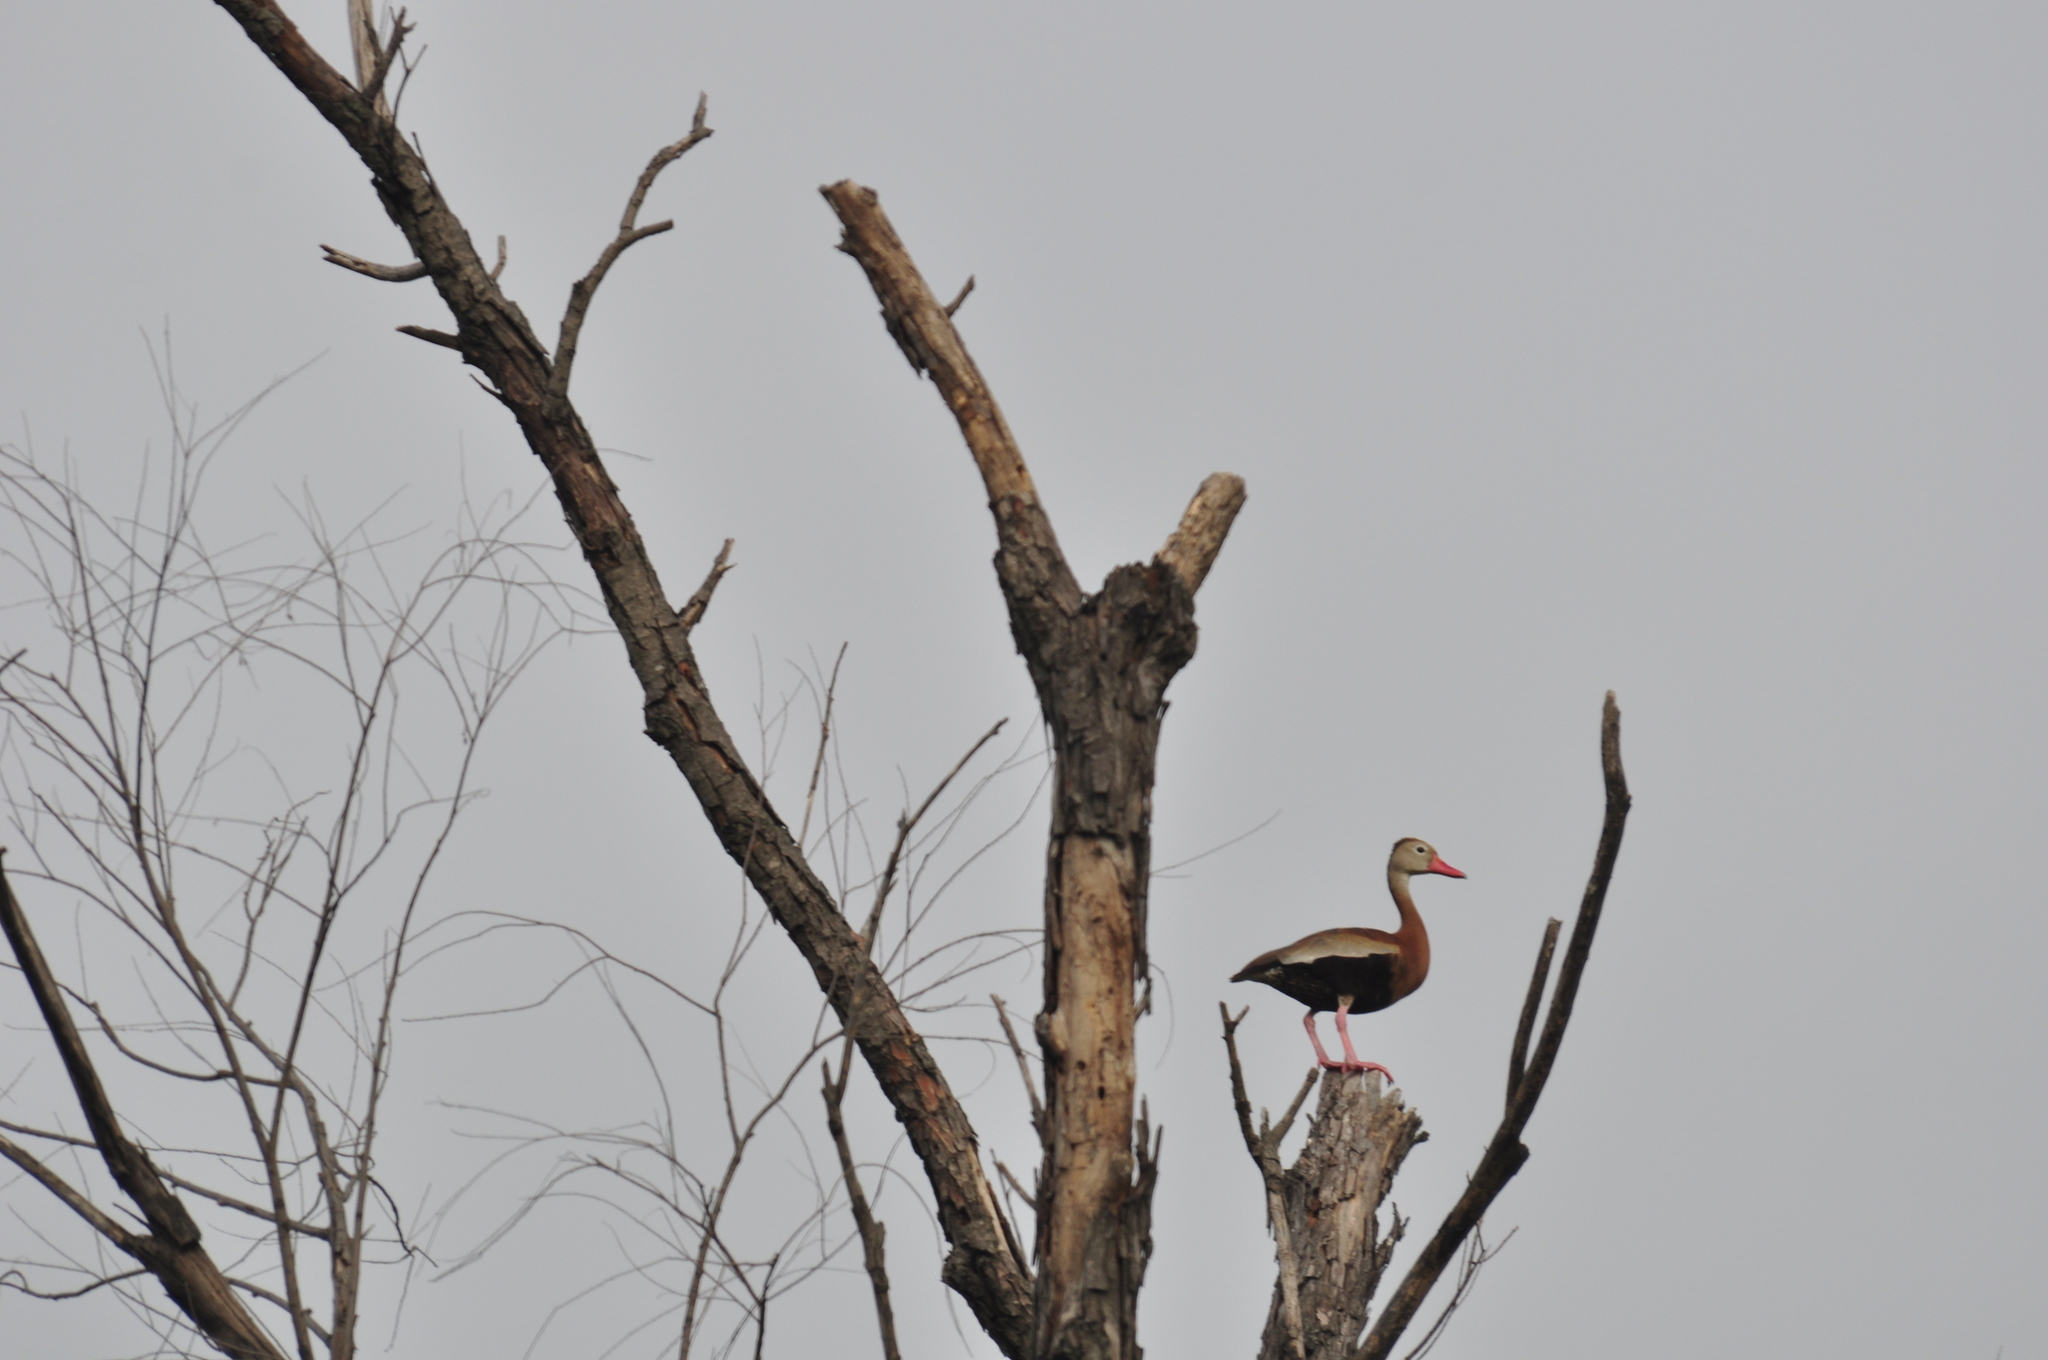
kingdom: Animalia
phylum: Chordata
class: Aves
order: Anseriformes
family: Anatidae
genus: Dendrocygna
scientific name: Dendrocygna autumnalis
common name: Black-bellied whistling duck
